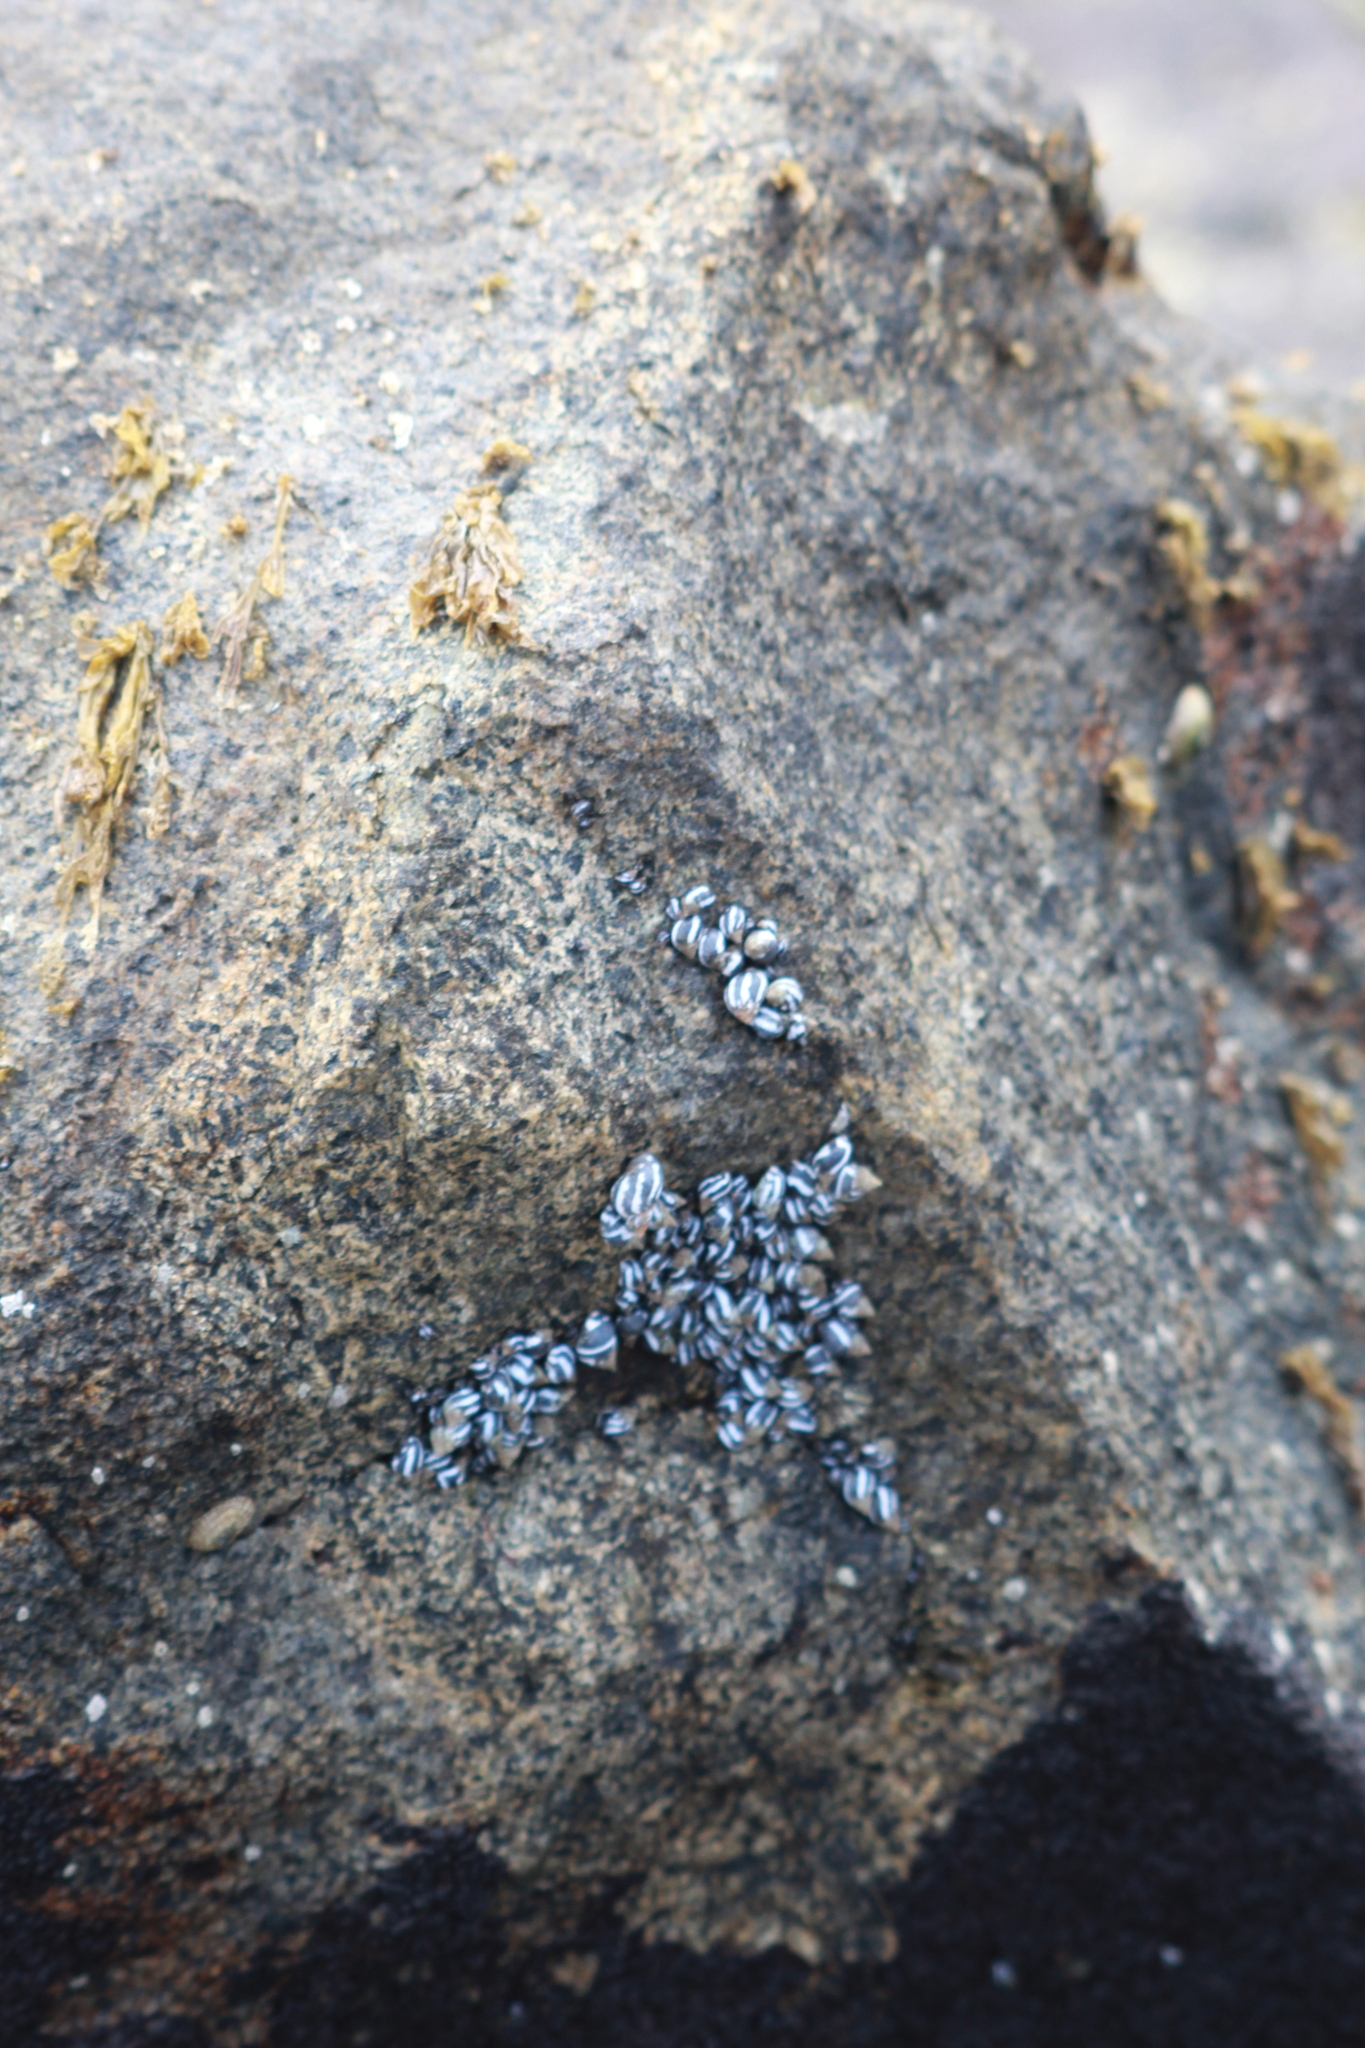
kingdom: Animalia
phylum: Mollusca
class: Gastropoda
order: Littorinimorpha
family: Littorinidae
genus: Echinolittorina
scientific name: Echinolittorina peruviana
